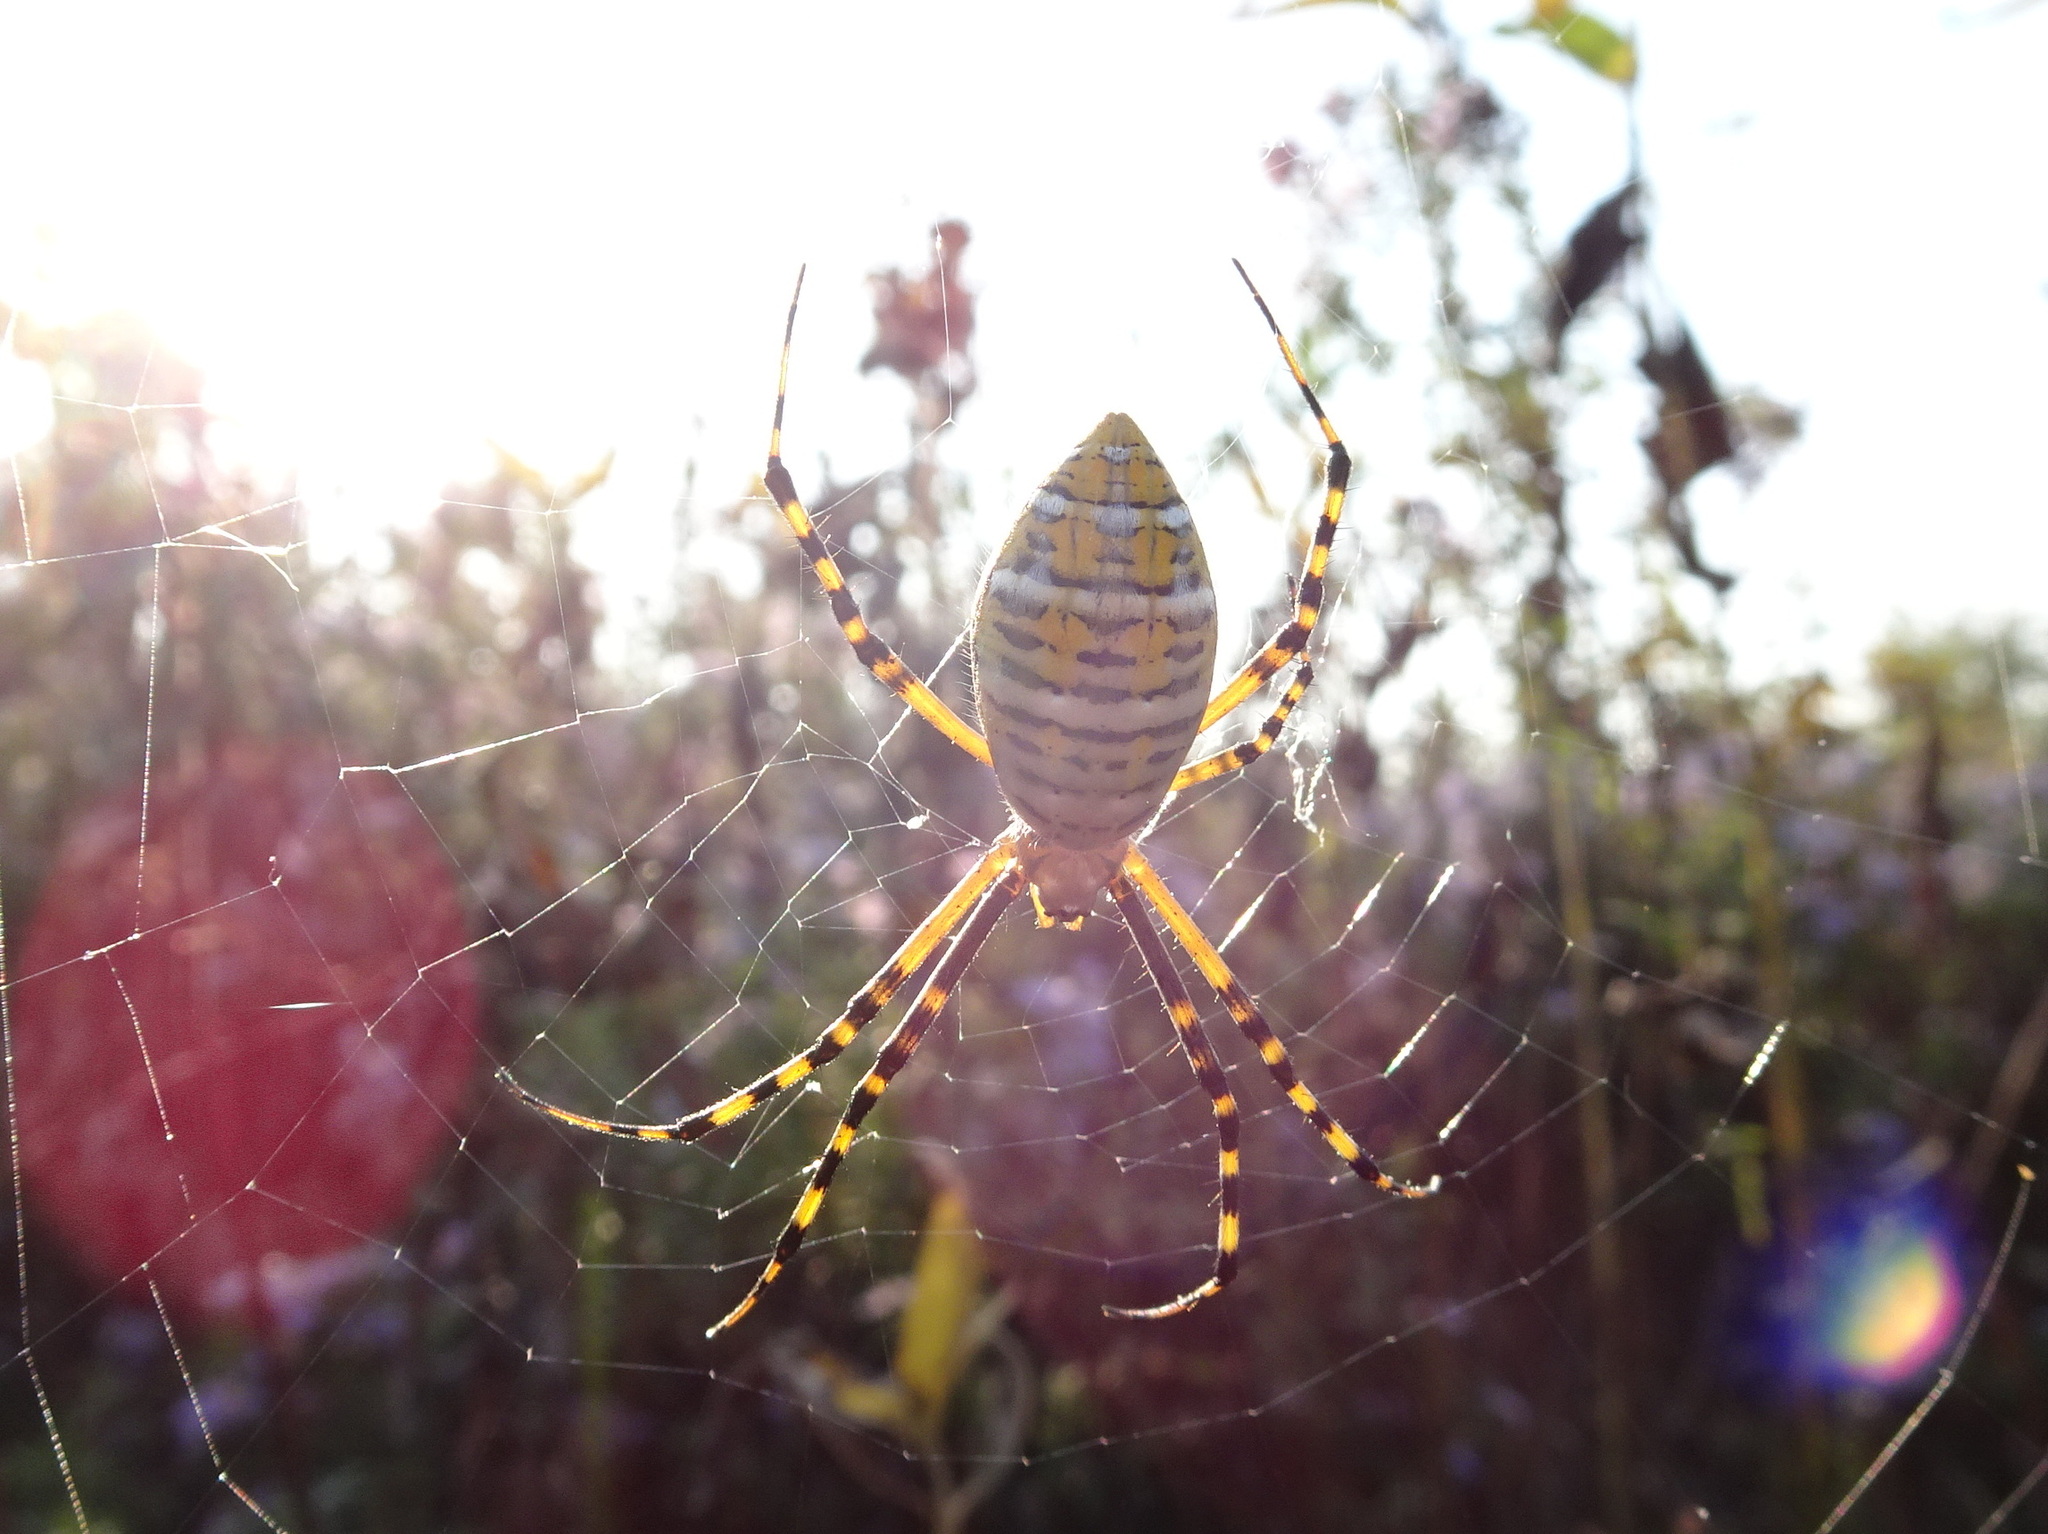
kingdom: Animalia
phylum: Arthropoda
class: Arachnida
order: Araneae
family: Araneidae
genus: Argiope
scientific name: Argiope trifasciata
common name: Banded garden spider
